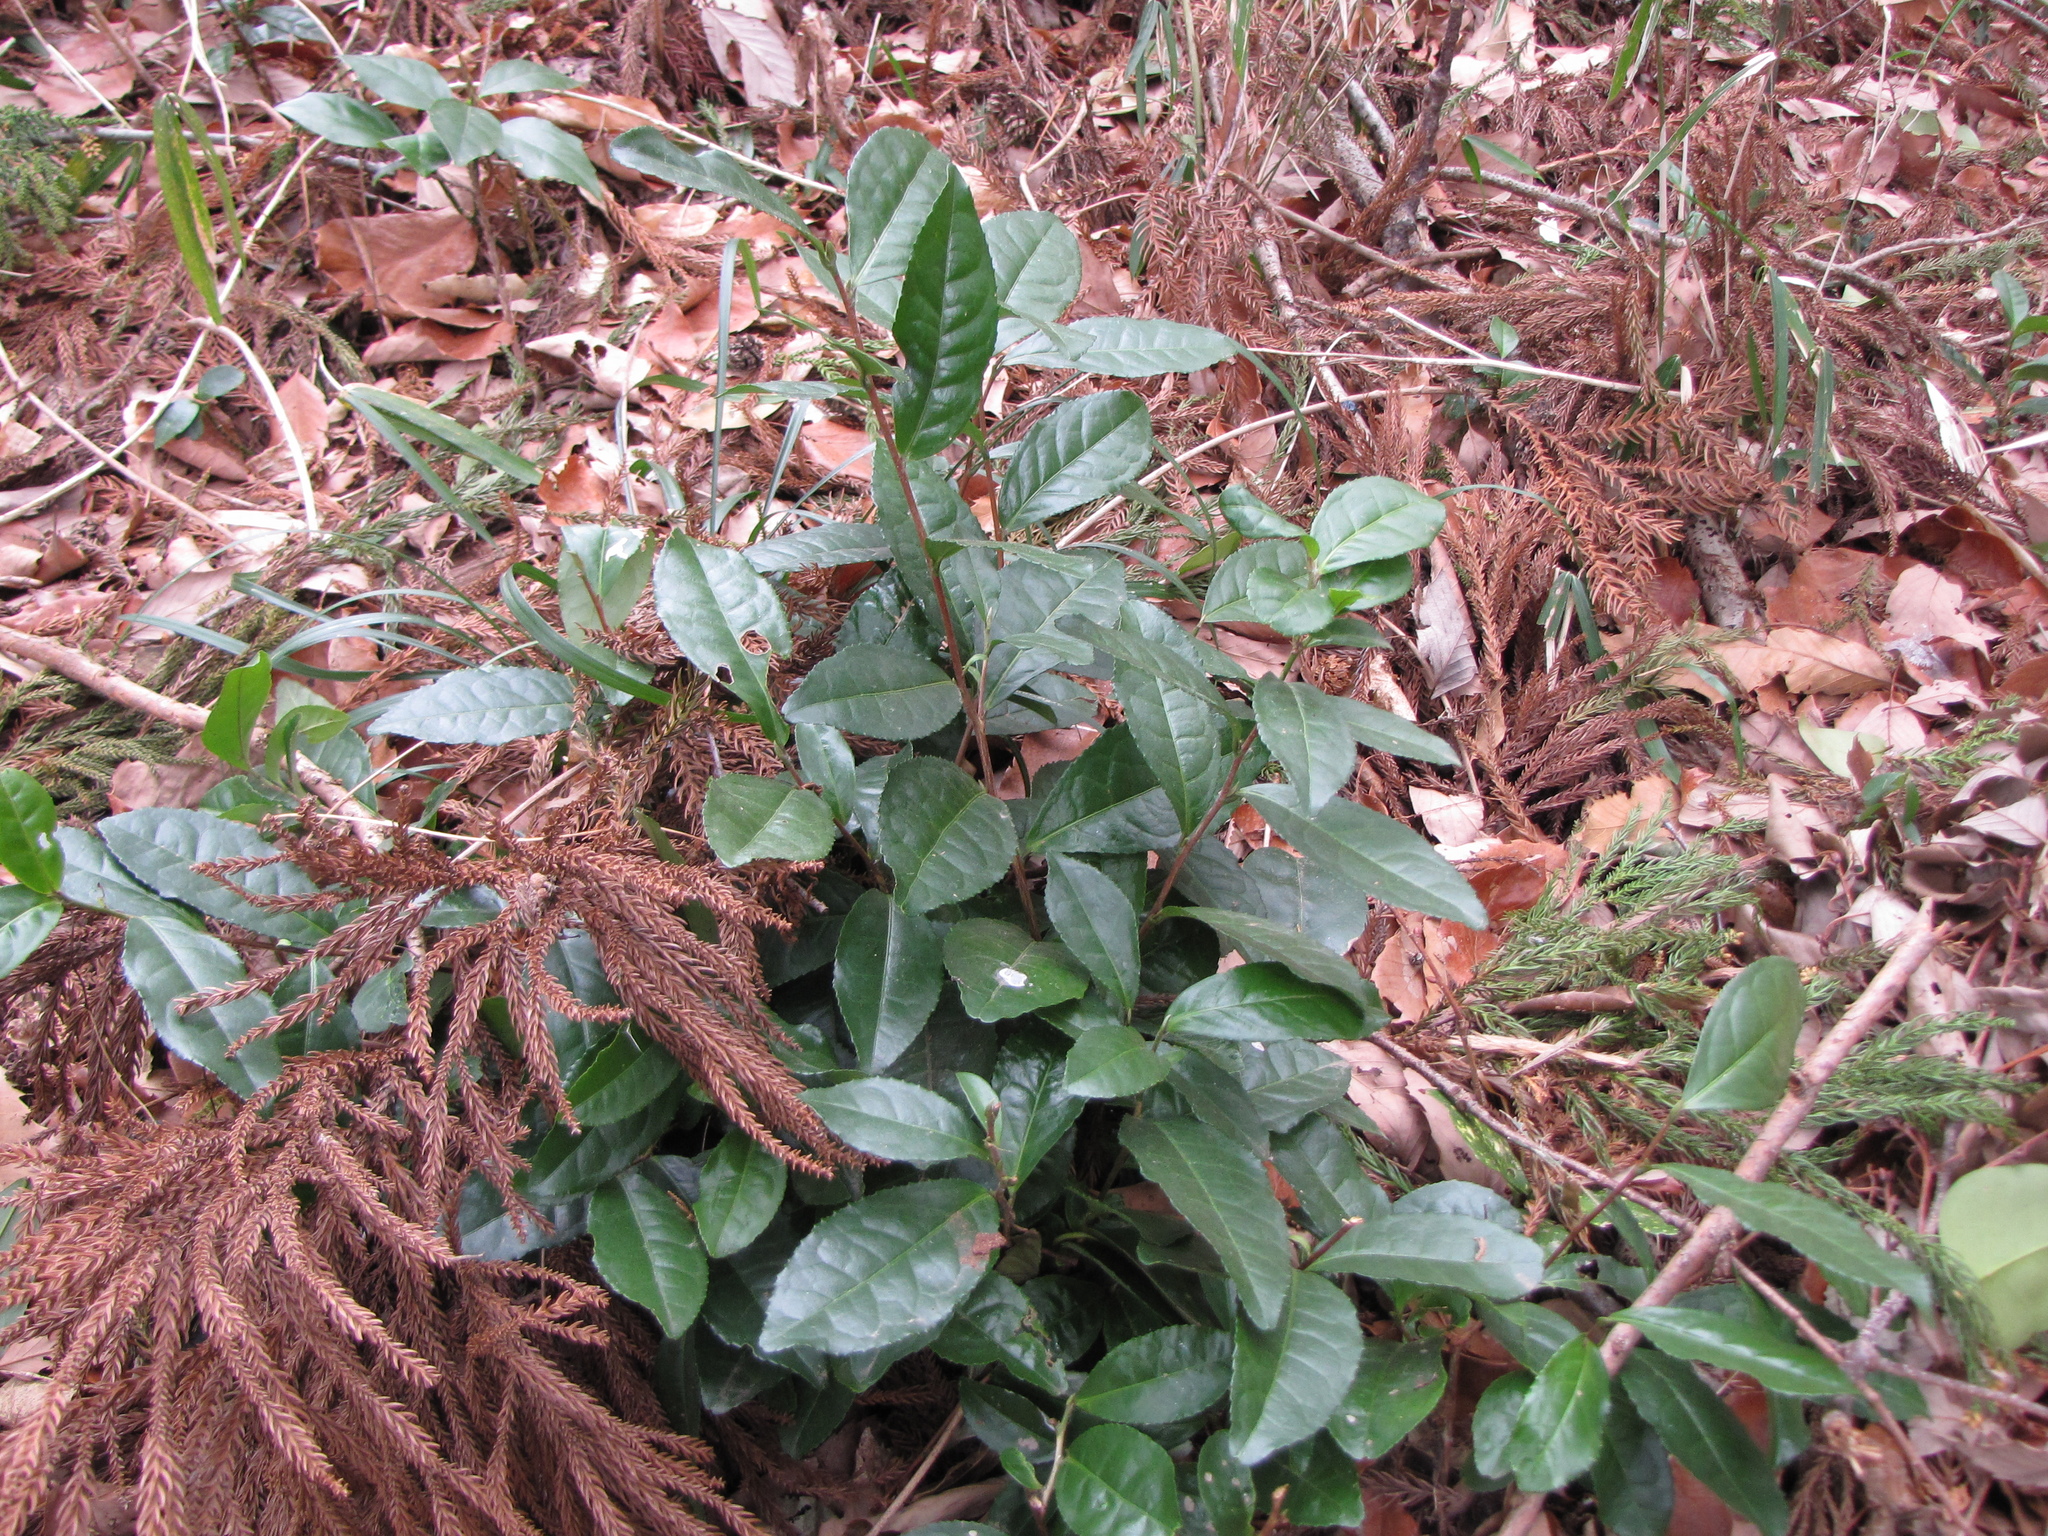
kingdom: Plantae
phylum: Tracheophyta
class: Magnoliopsida
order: Ericales
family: Theaceae
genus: Camellia
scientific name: Camellia sinensis
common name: Tea
